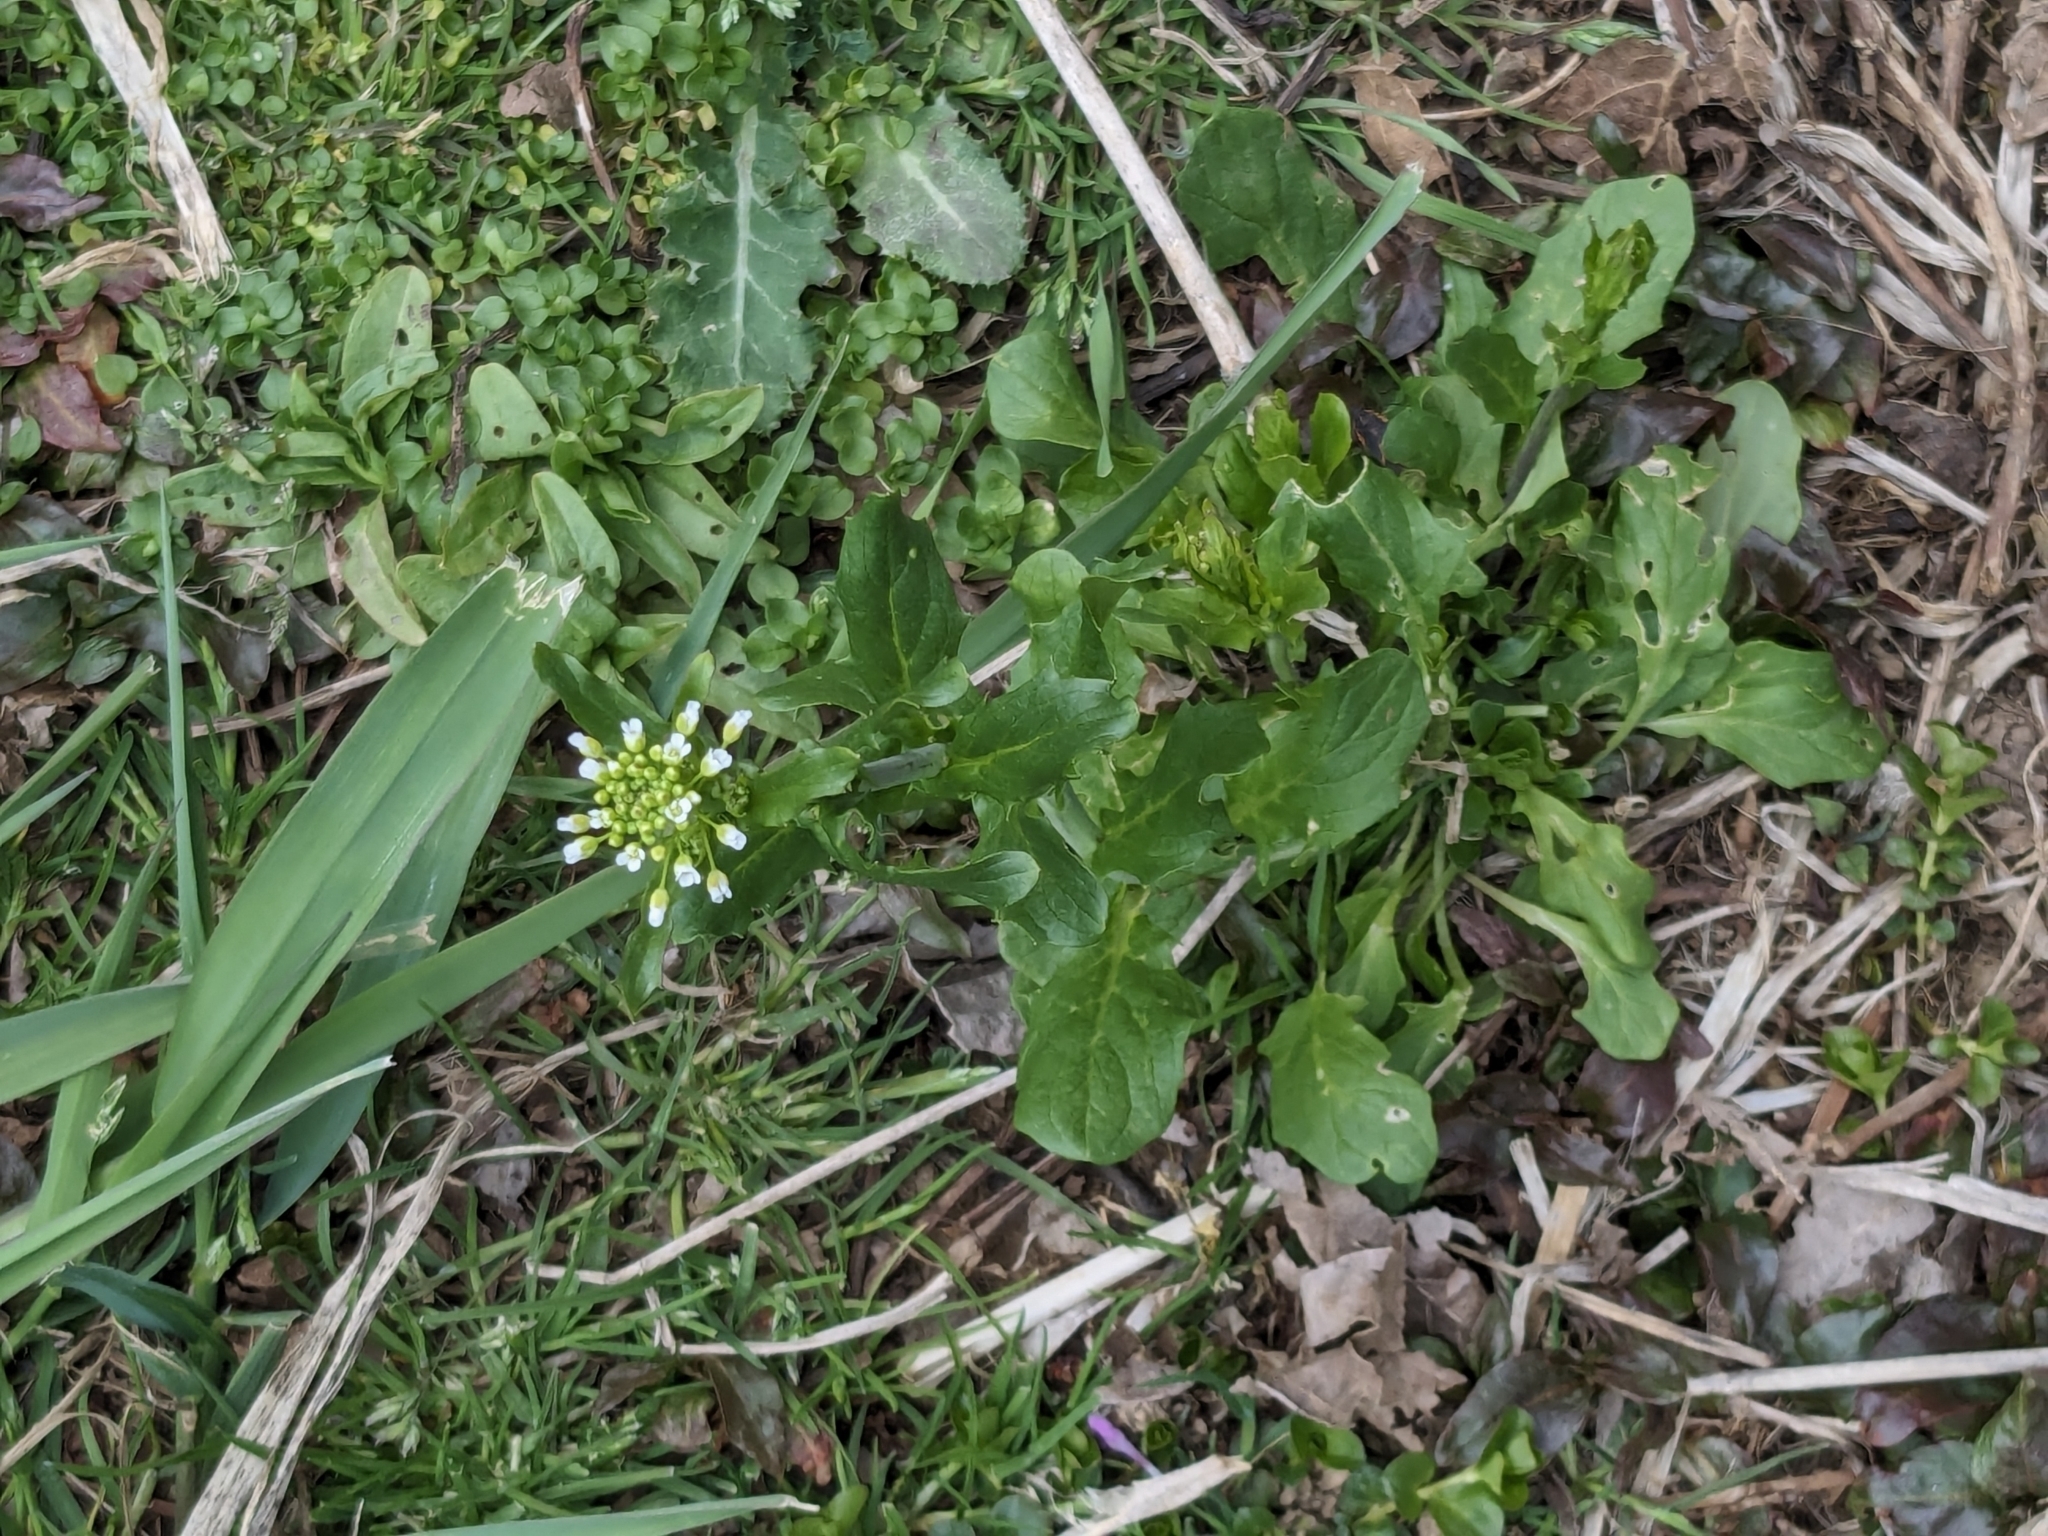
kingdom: Plantae
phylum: Tracheophyta
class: Magnoliopsida
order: Brassicales
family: Brassicaceae
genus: Mummenhoffia
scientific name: Mummenhoffia alliacea
